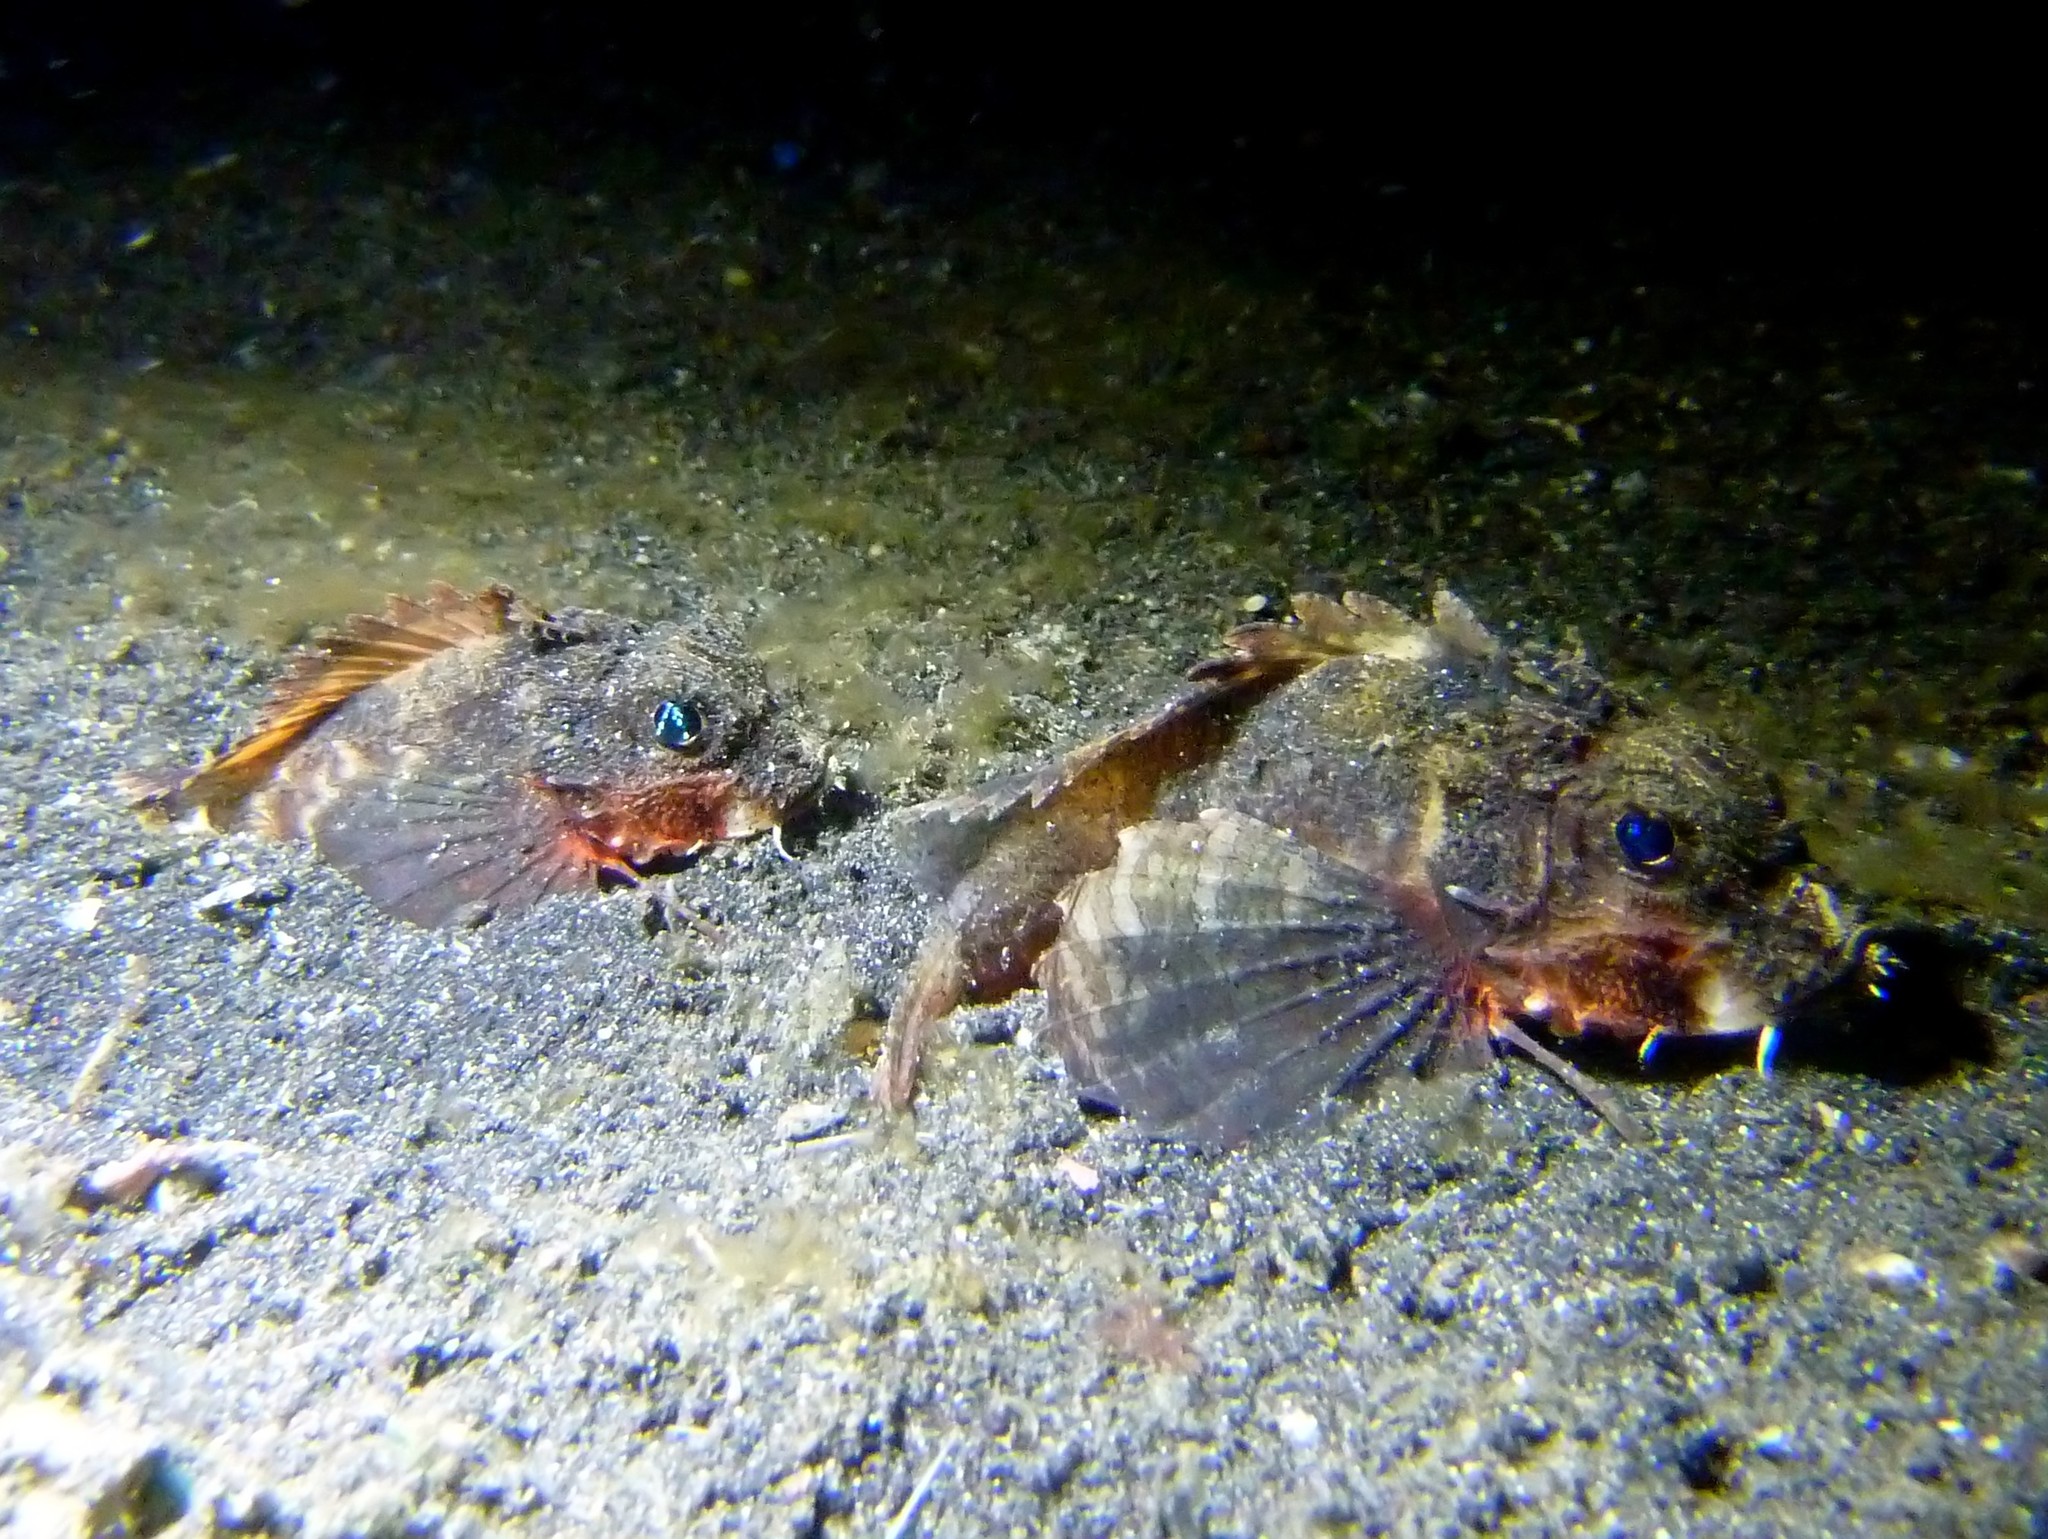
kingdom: Animalia
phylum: Chordata
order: Scorpaeniformes
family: Synanceiidae
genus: Minous
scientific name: Minous pictus
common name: Painted stinger
